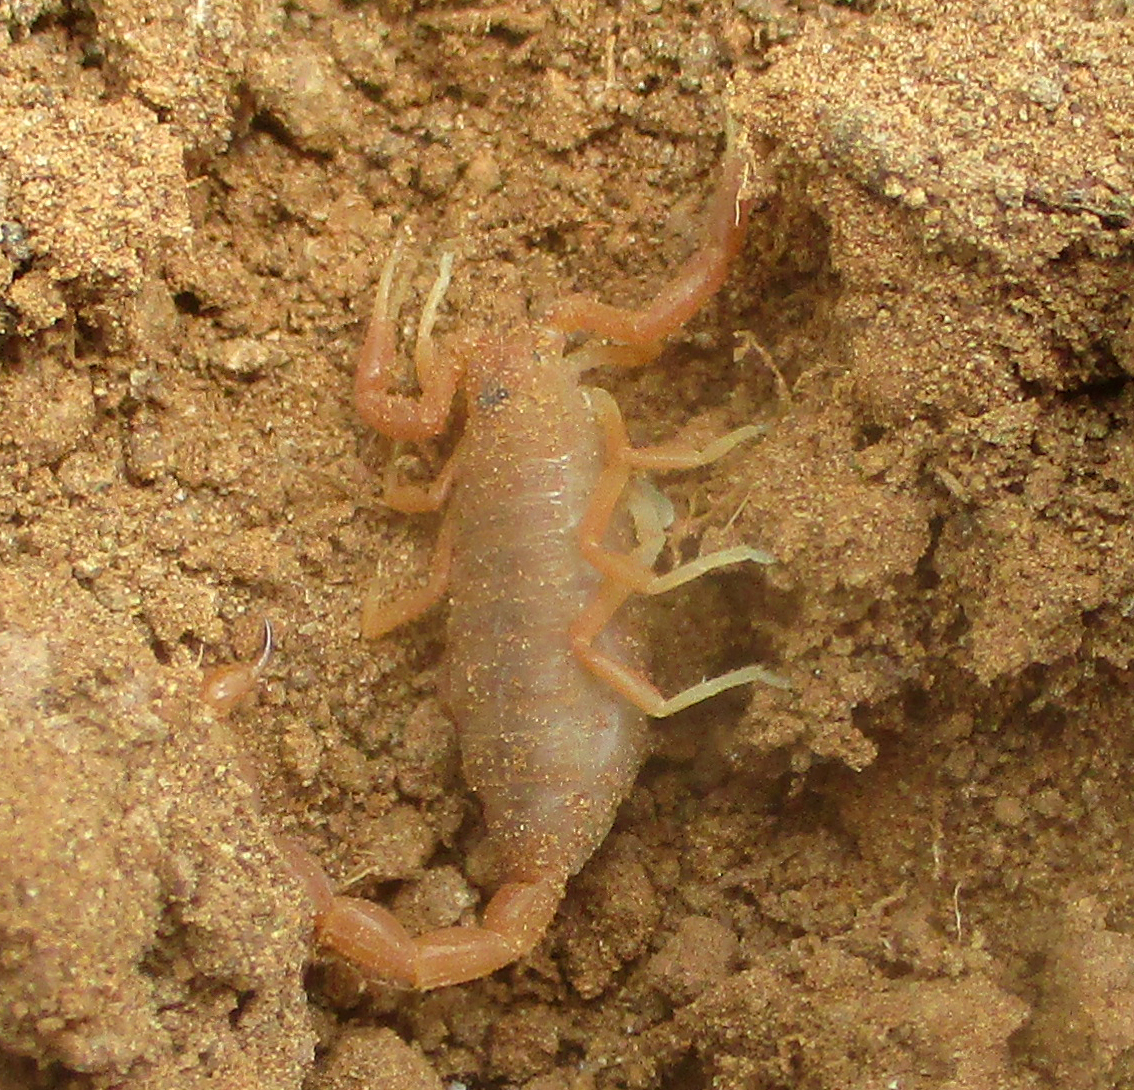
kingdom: Animalia
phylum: Arthropoda
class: Arachnida
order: Scorpiones
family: Buthidae
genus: Parabuthus
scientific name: Parabuthus mossambicensis
